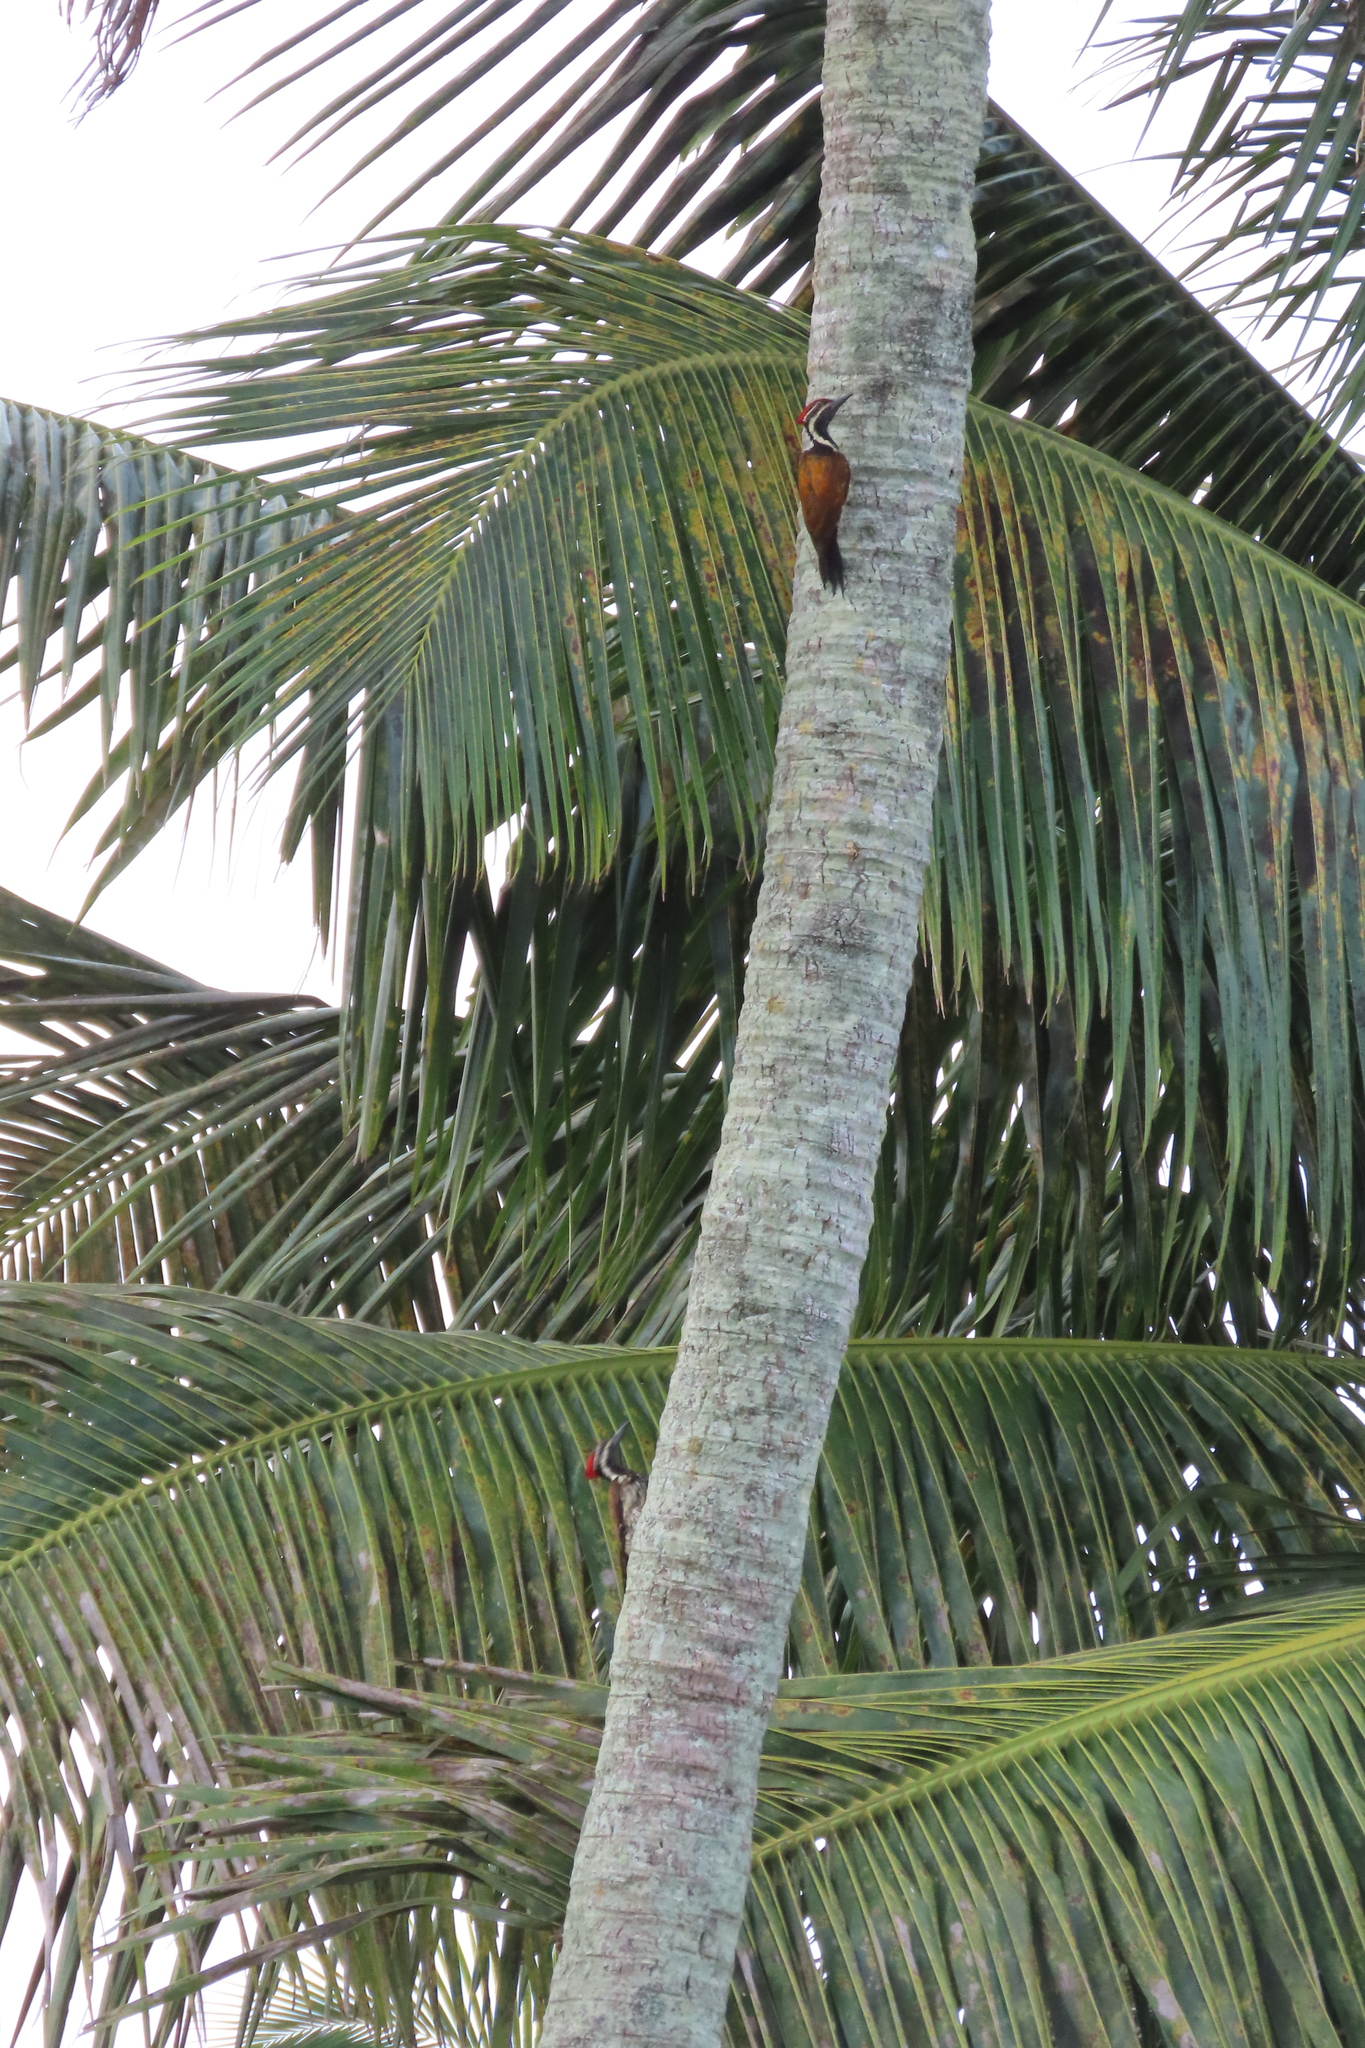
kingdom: Animalia
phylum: Chordata
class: Aves
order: Piciformes
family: Picidae
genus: Dinopium
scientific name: Dinopium benghalense
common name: Black-rumped flameback
